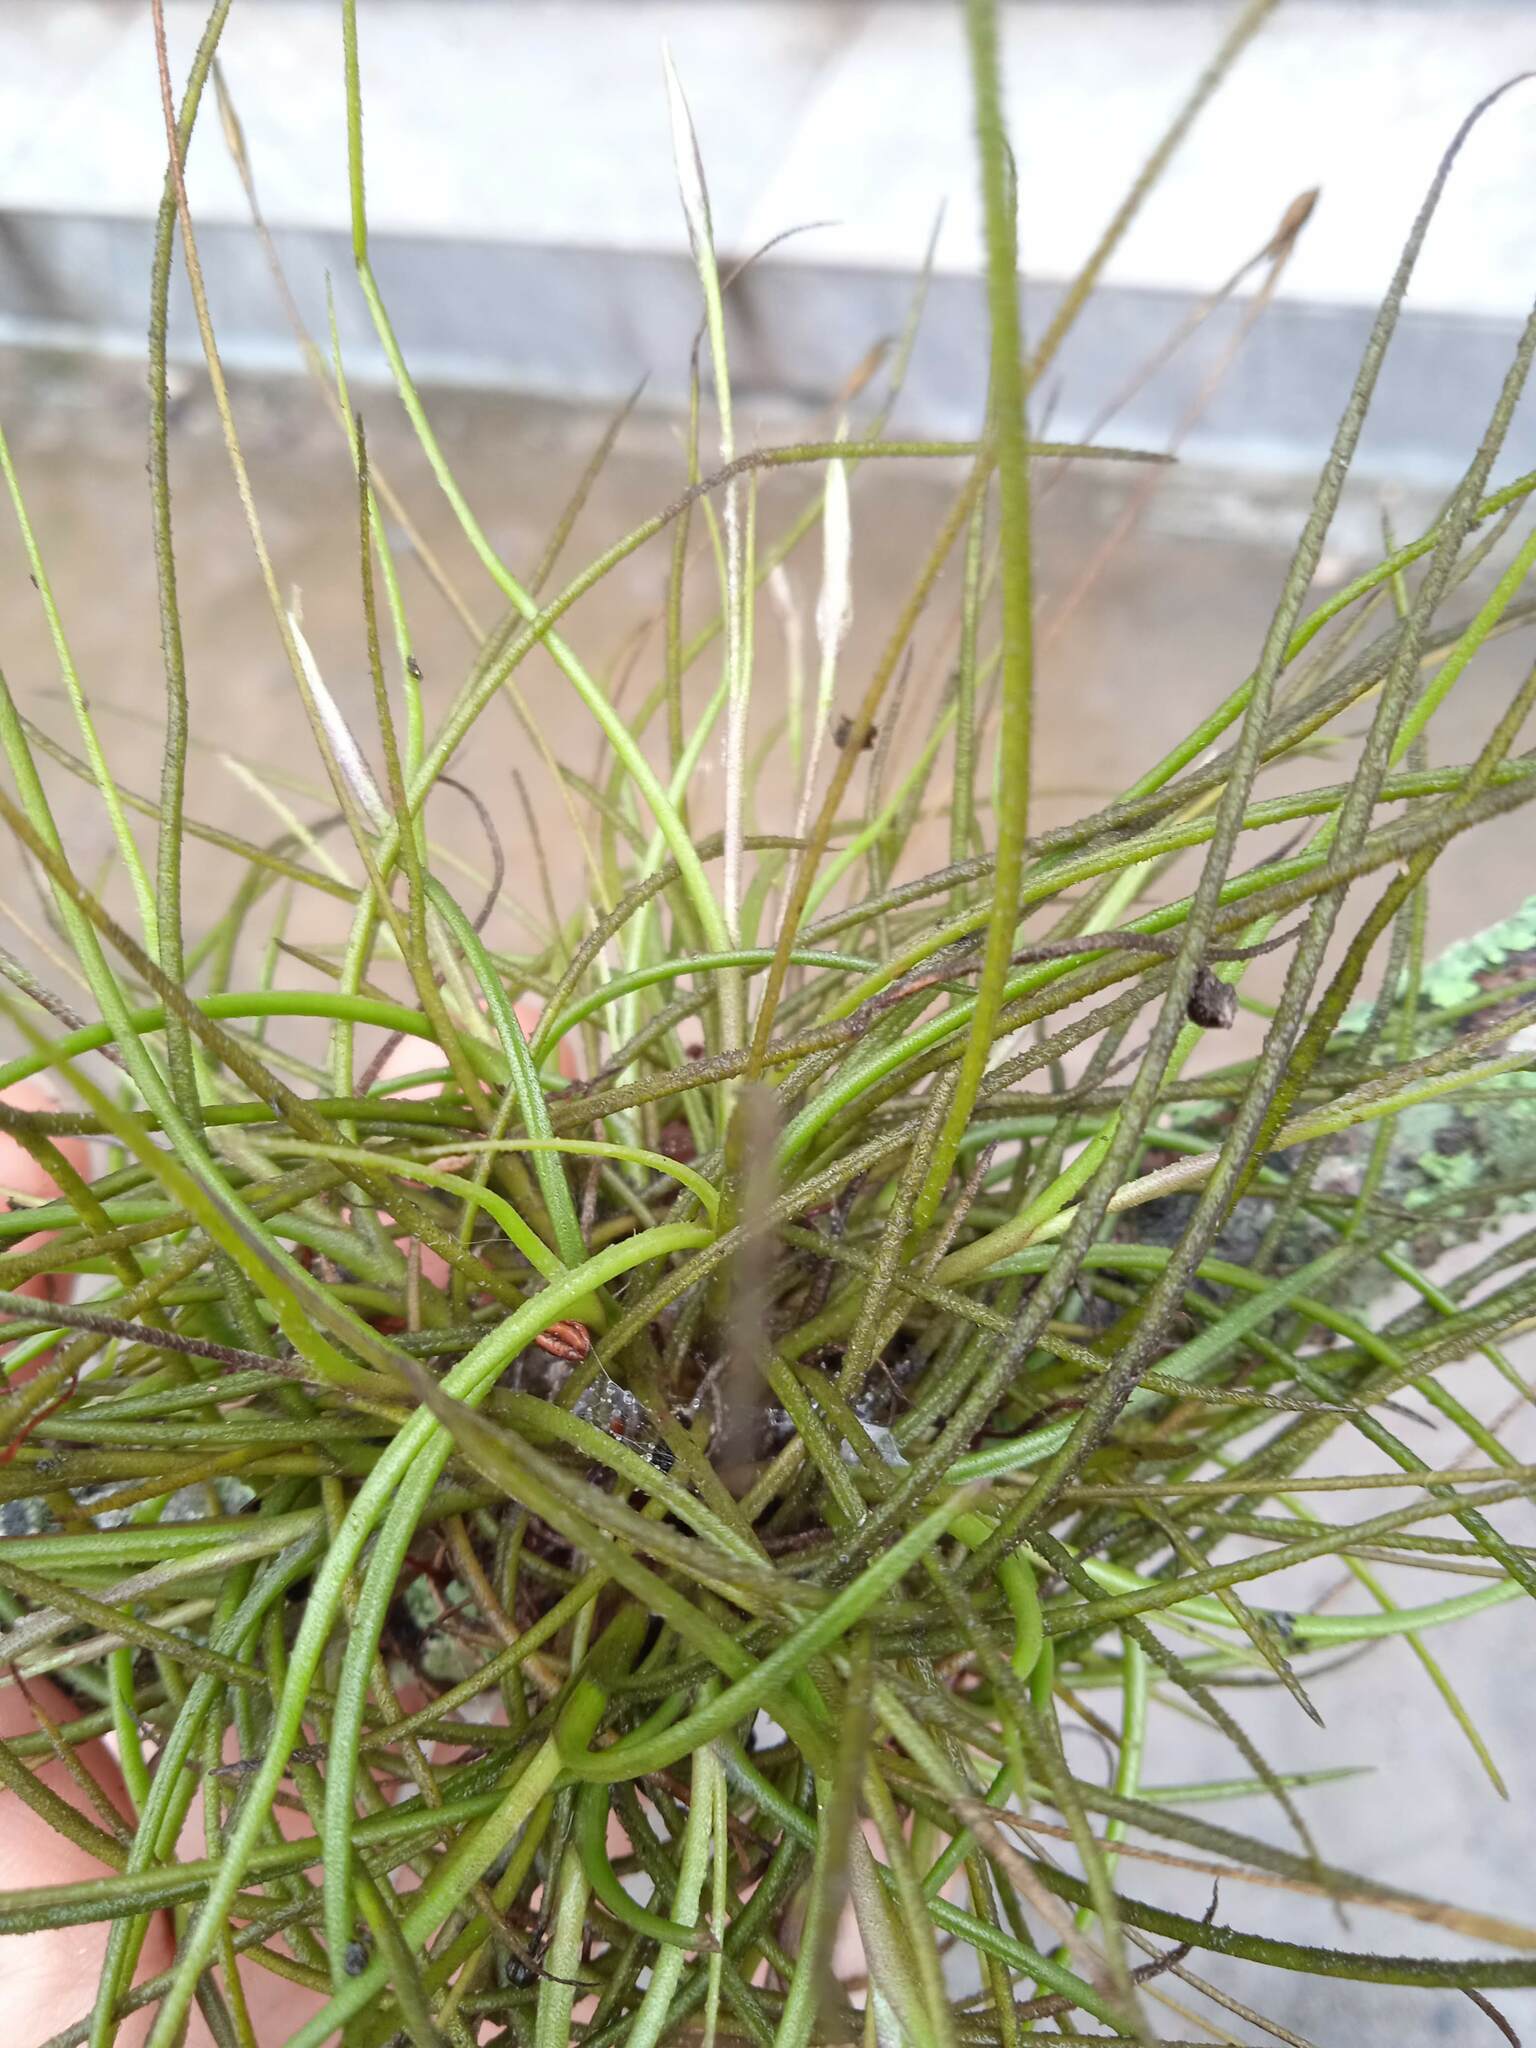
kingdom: Plantae
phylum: Tracheophyta
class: Liliopsida
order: Poales
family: Bromeliaceae
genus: Tillandsia
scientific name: Tillandsia recurvata
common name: Small ballmoss
